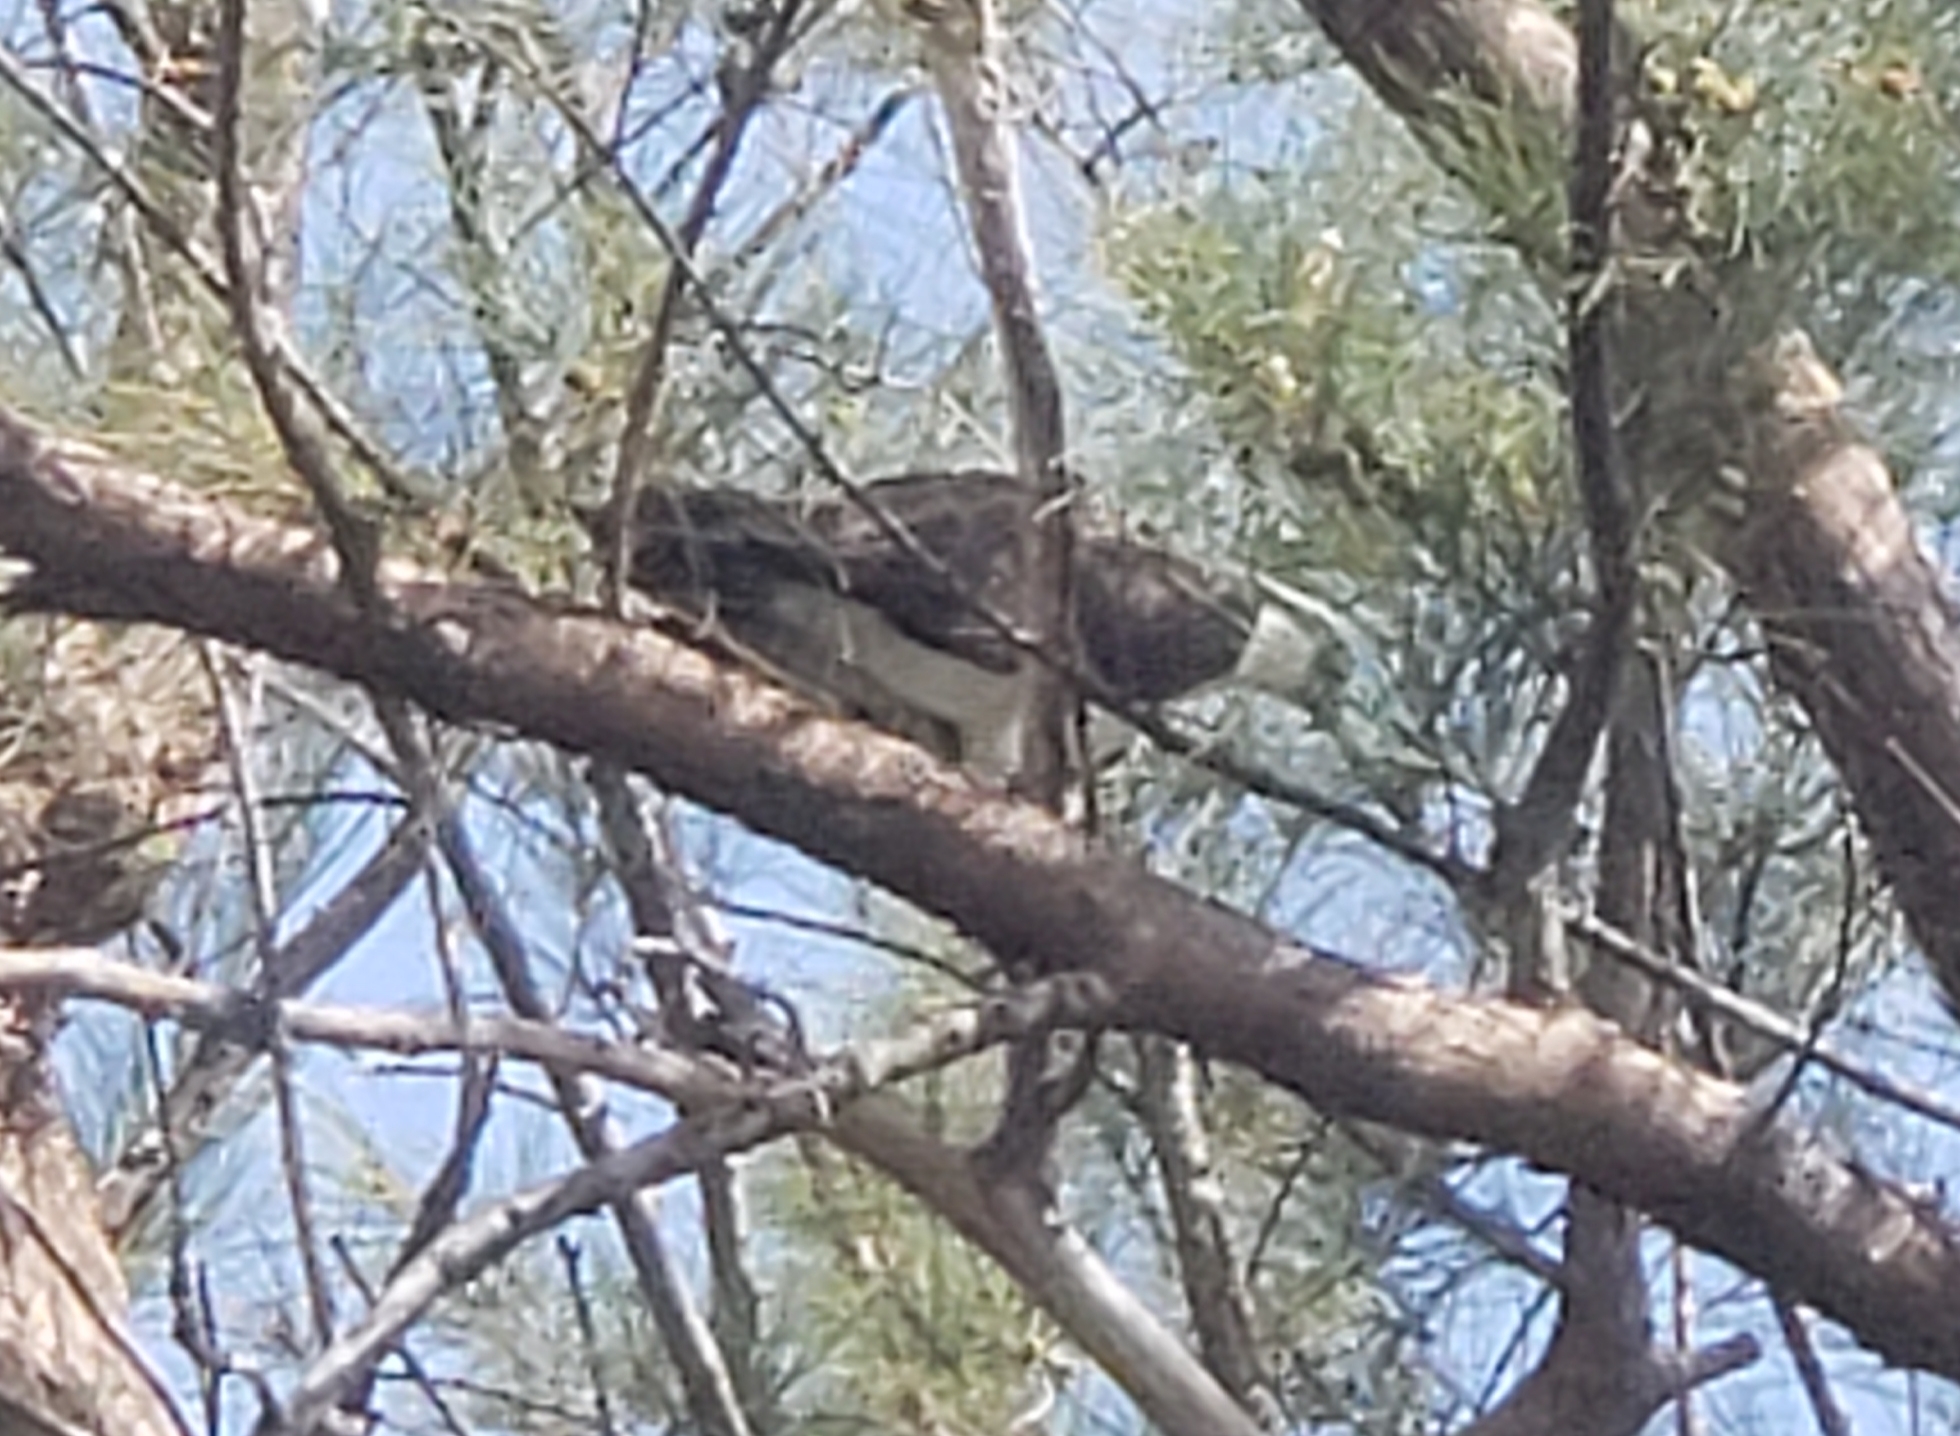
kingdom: Animalia
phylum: Chordata
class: Aves
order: Accipitriformes
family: Pandionidae
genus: Pandion
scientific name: Pandion haliaetus
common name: Osprey
